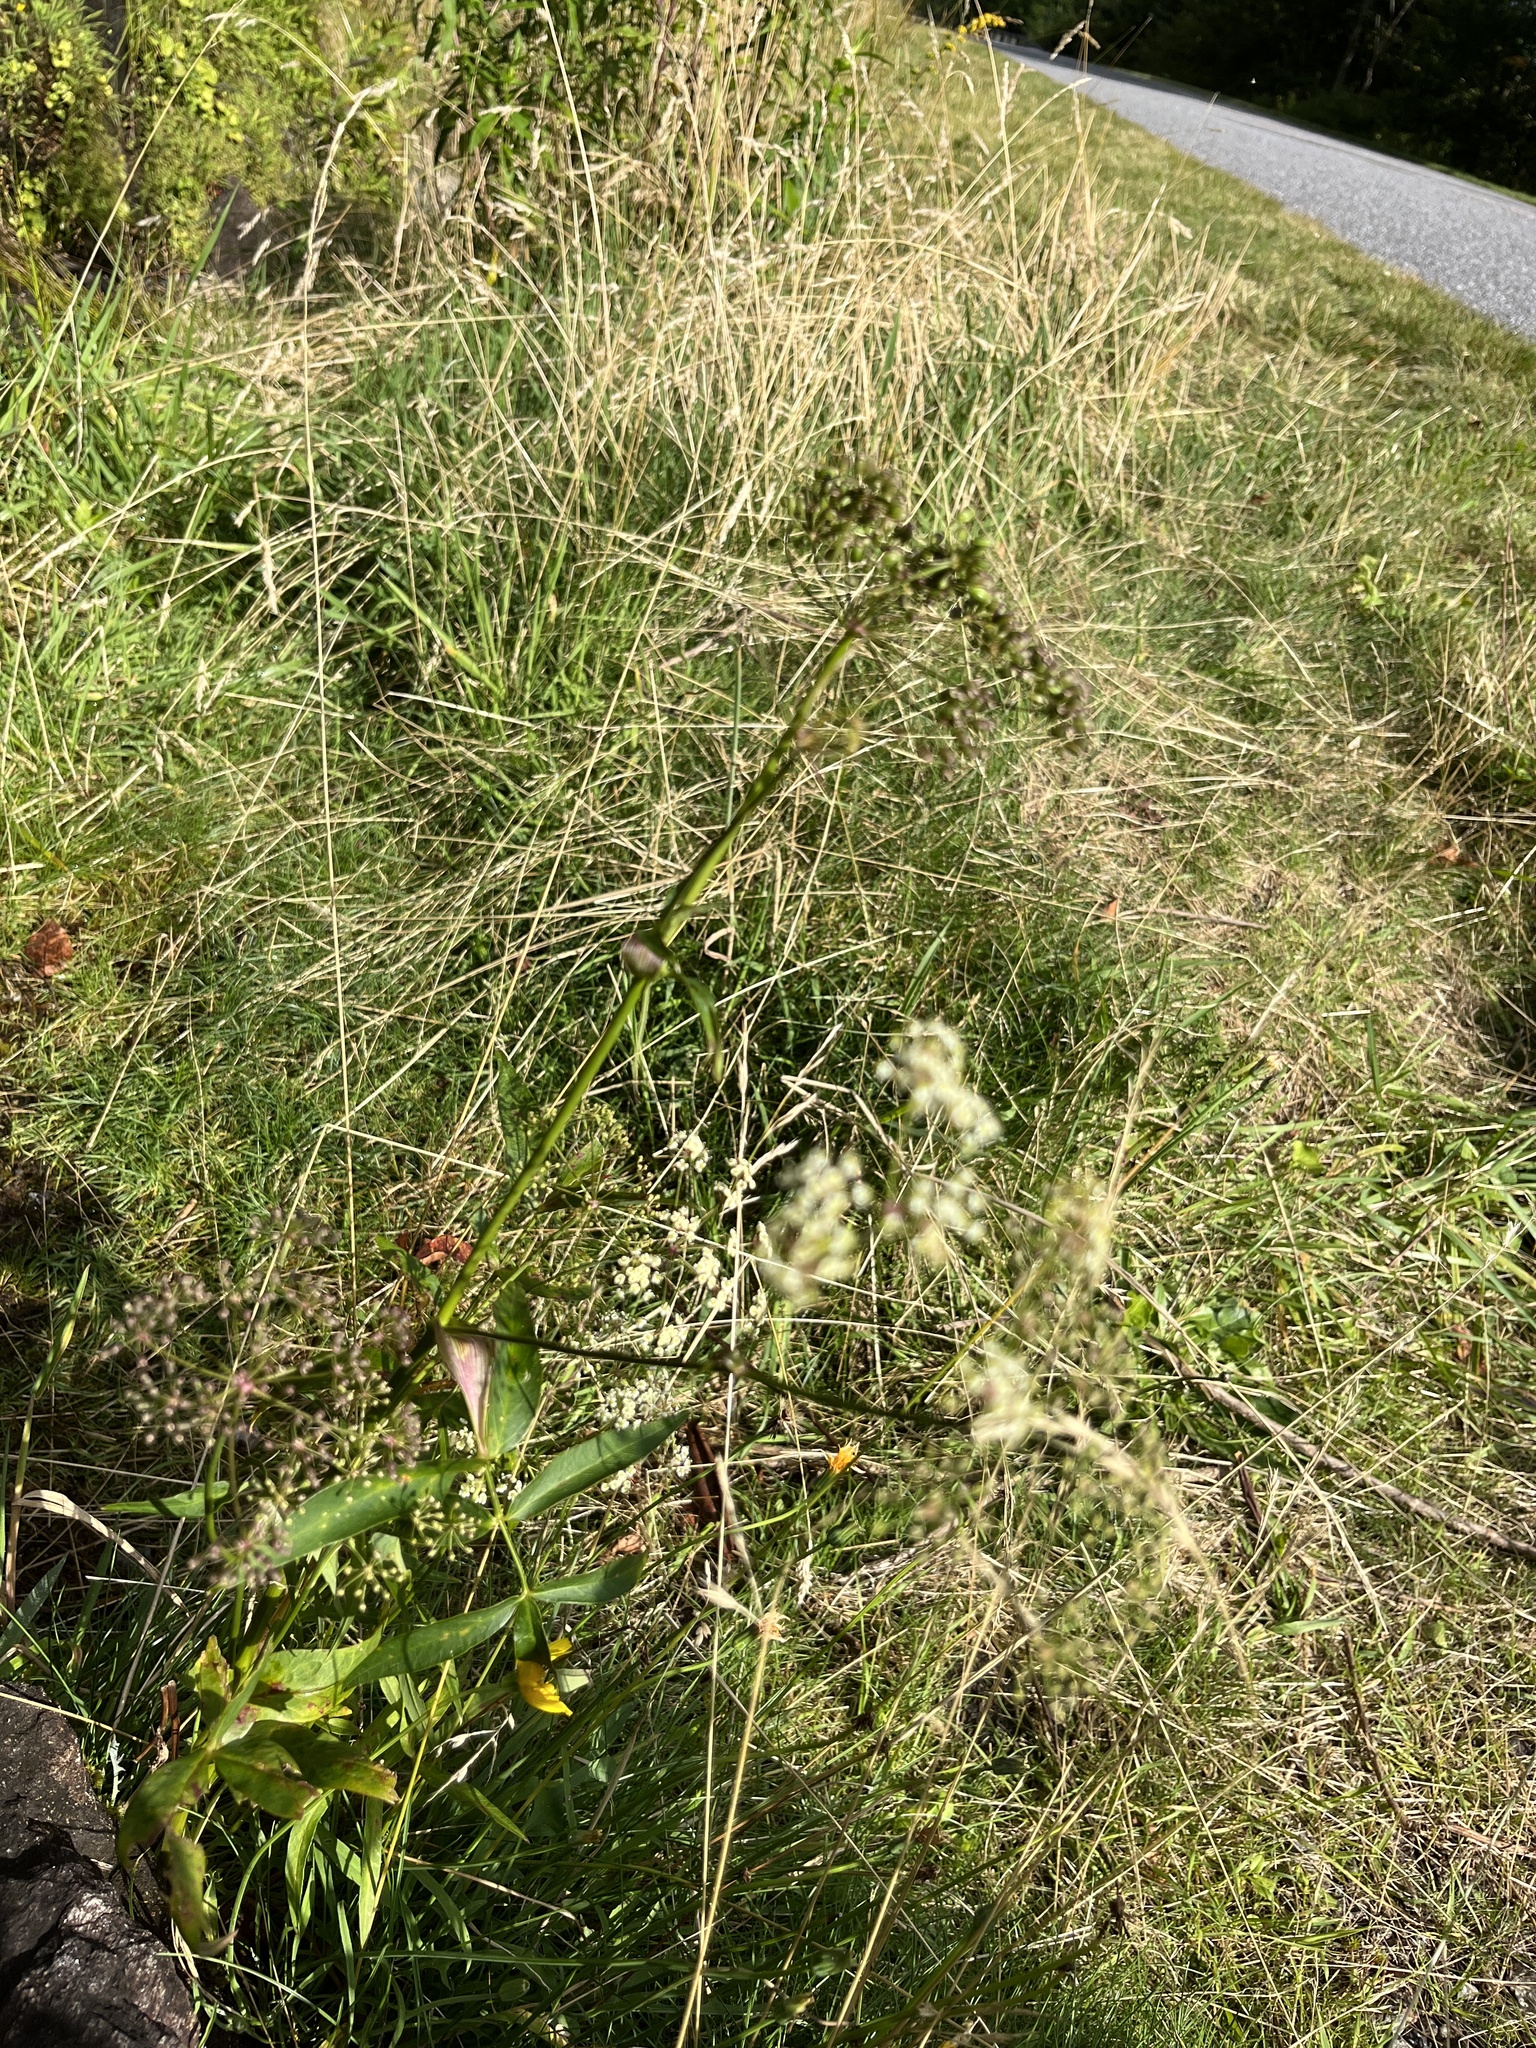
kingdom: Plantae
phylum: Tracheophyta
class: Magnoliopsida
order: Apiales
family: Apiaceae
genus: Oxypolis
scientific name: Oxypolis rigidior
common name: Cowbane
